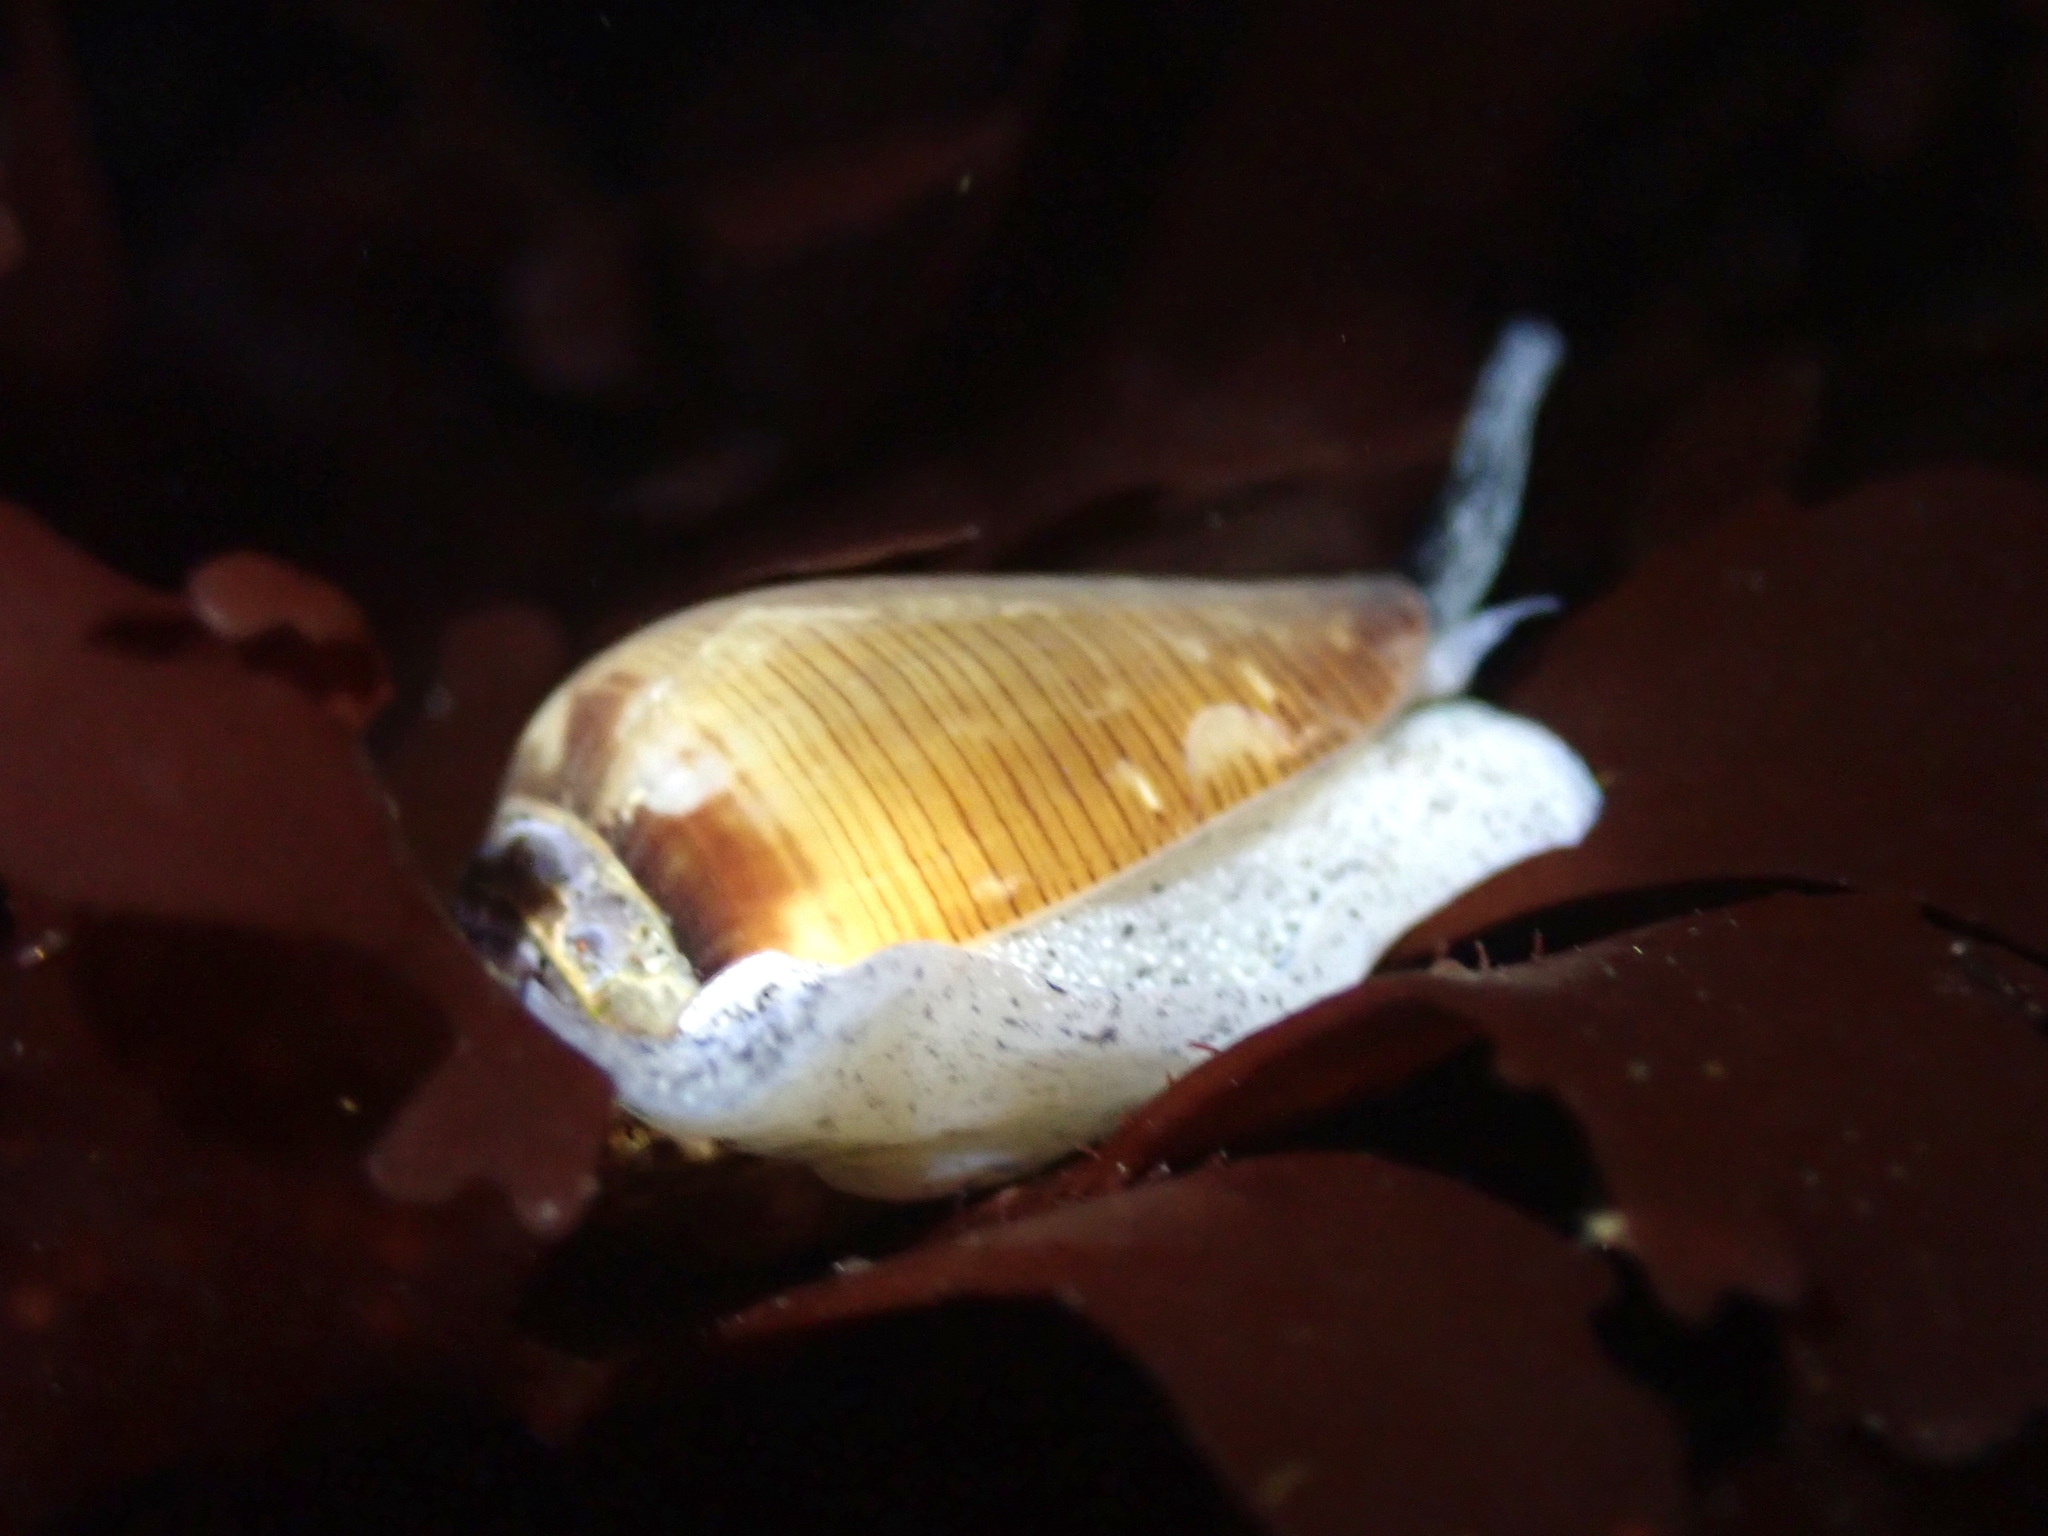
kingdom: Animalia
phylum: Mollusca
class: Gastropoda
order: Neogastropoda
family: Conidae
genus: Californiconus
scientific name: Californiconus californicus
